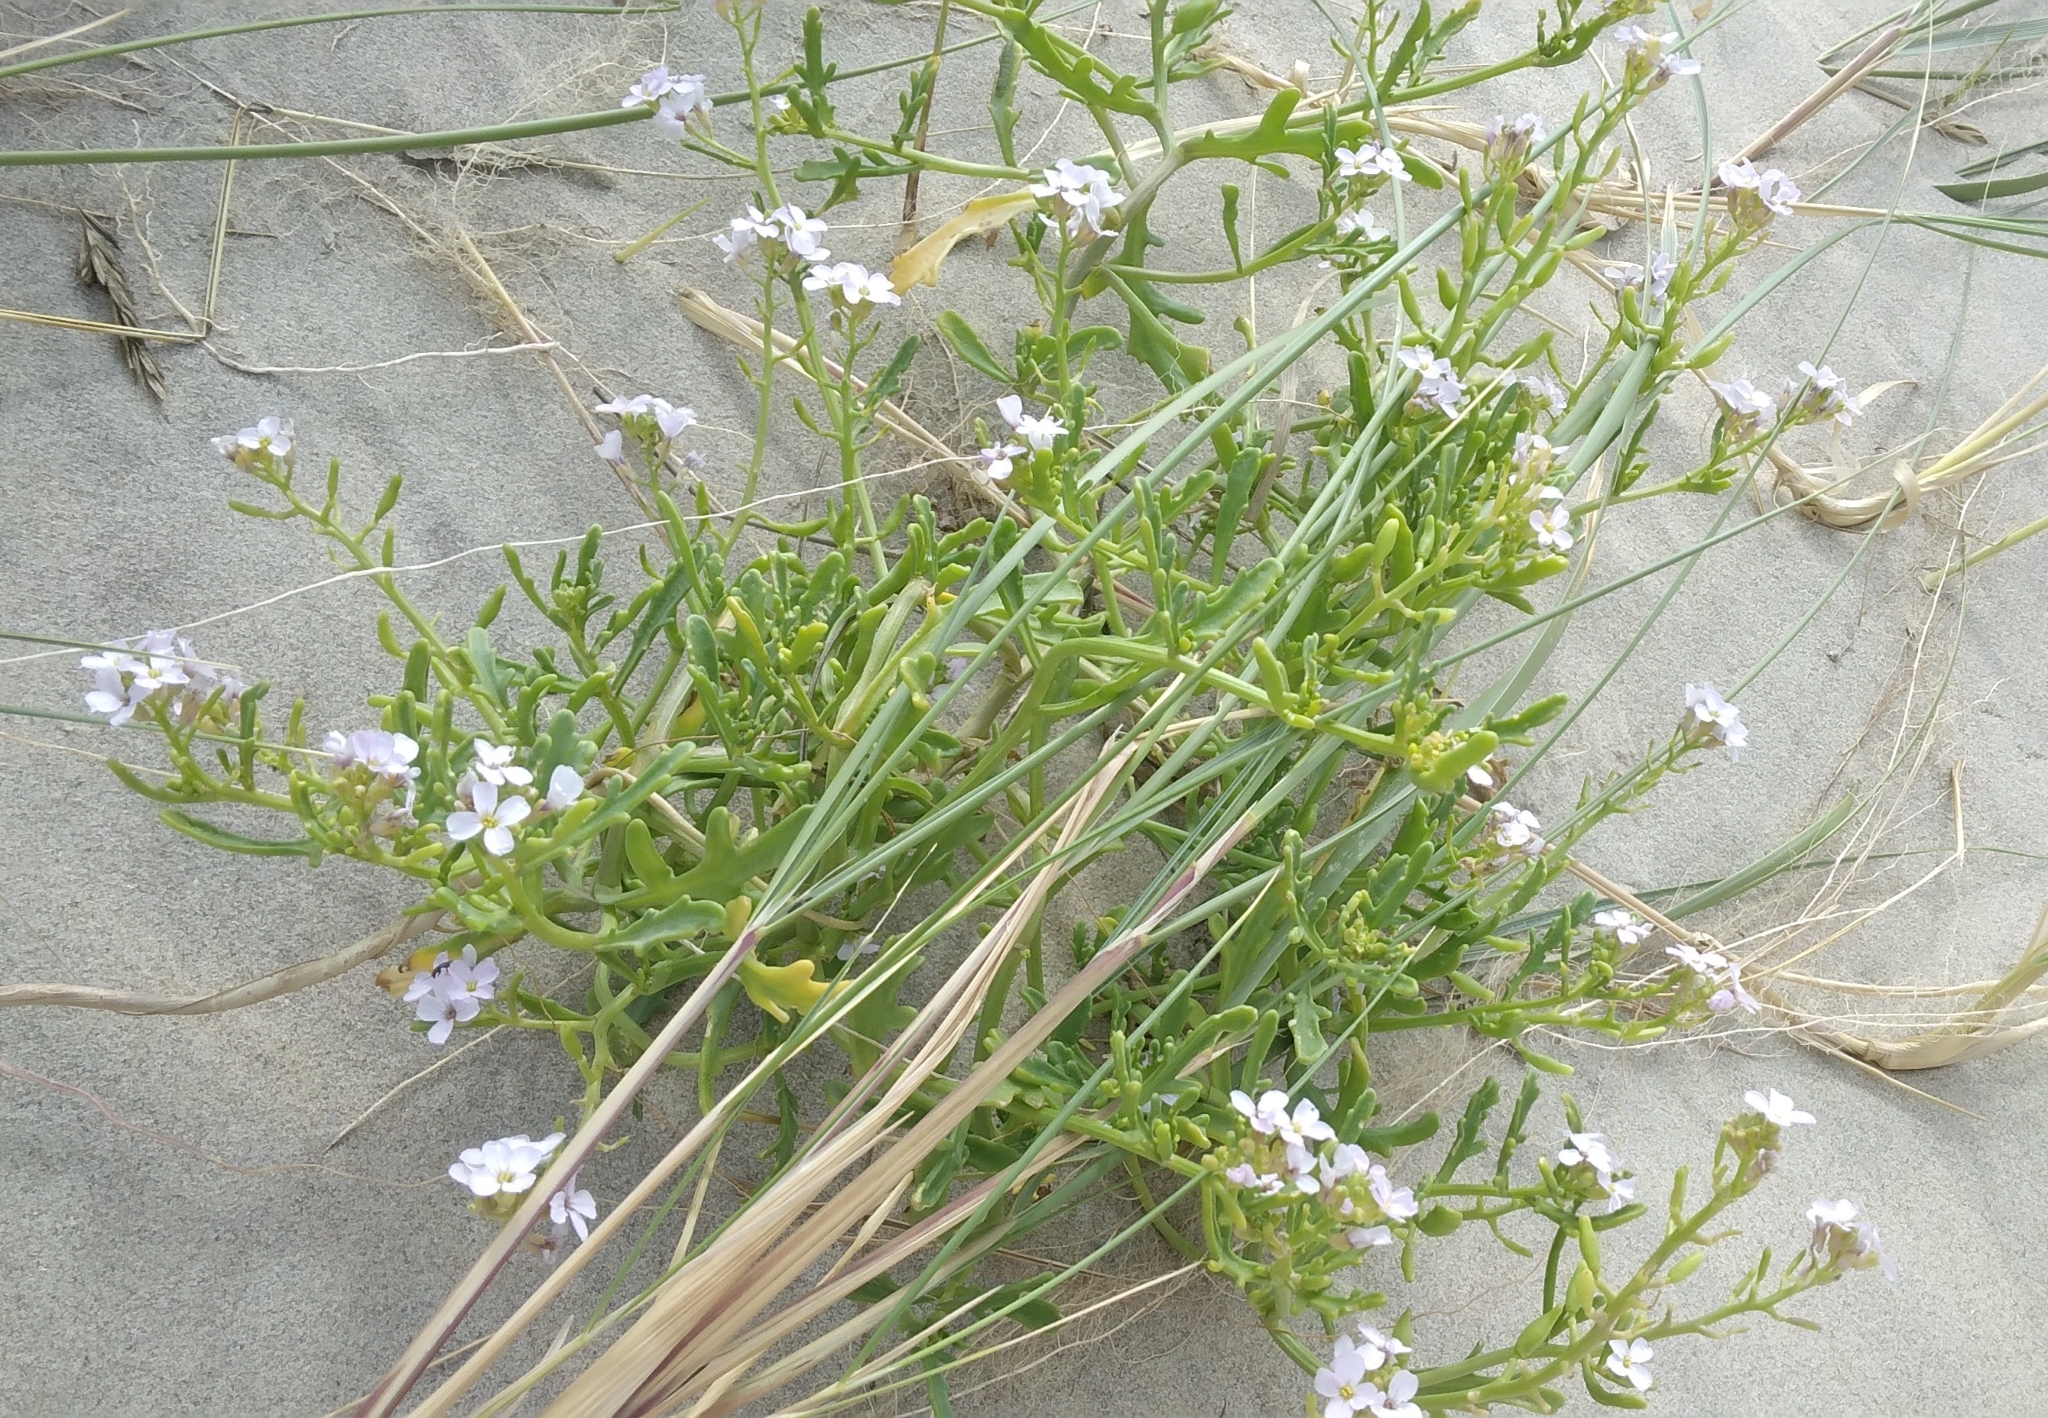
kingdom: Plantae
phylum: Tracheophyta
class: Magnoliopsida
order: Brassicales
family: Brassicaceae
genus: Cakile
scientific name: Cakile maritima
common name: Sea rocket
